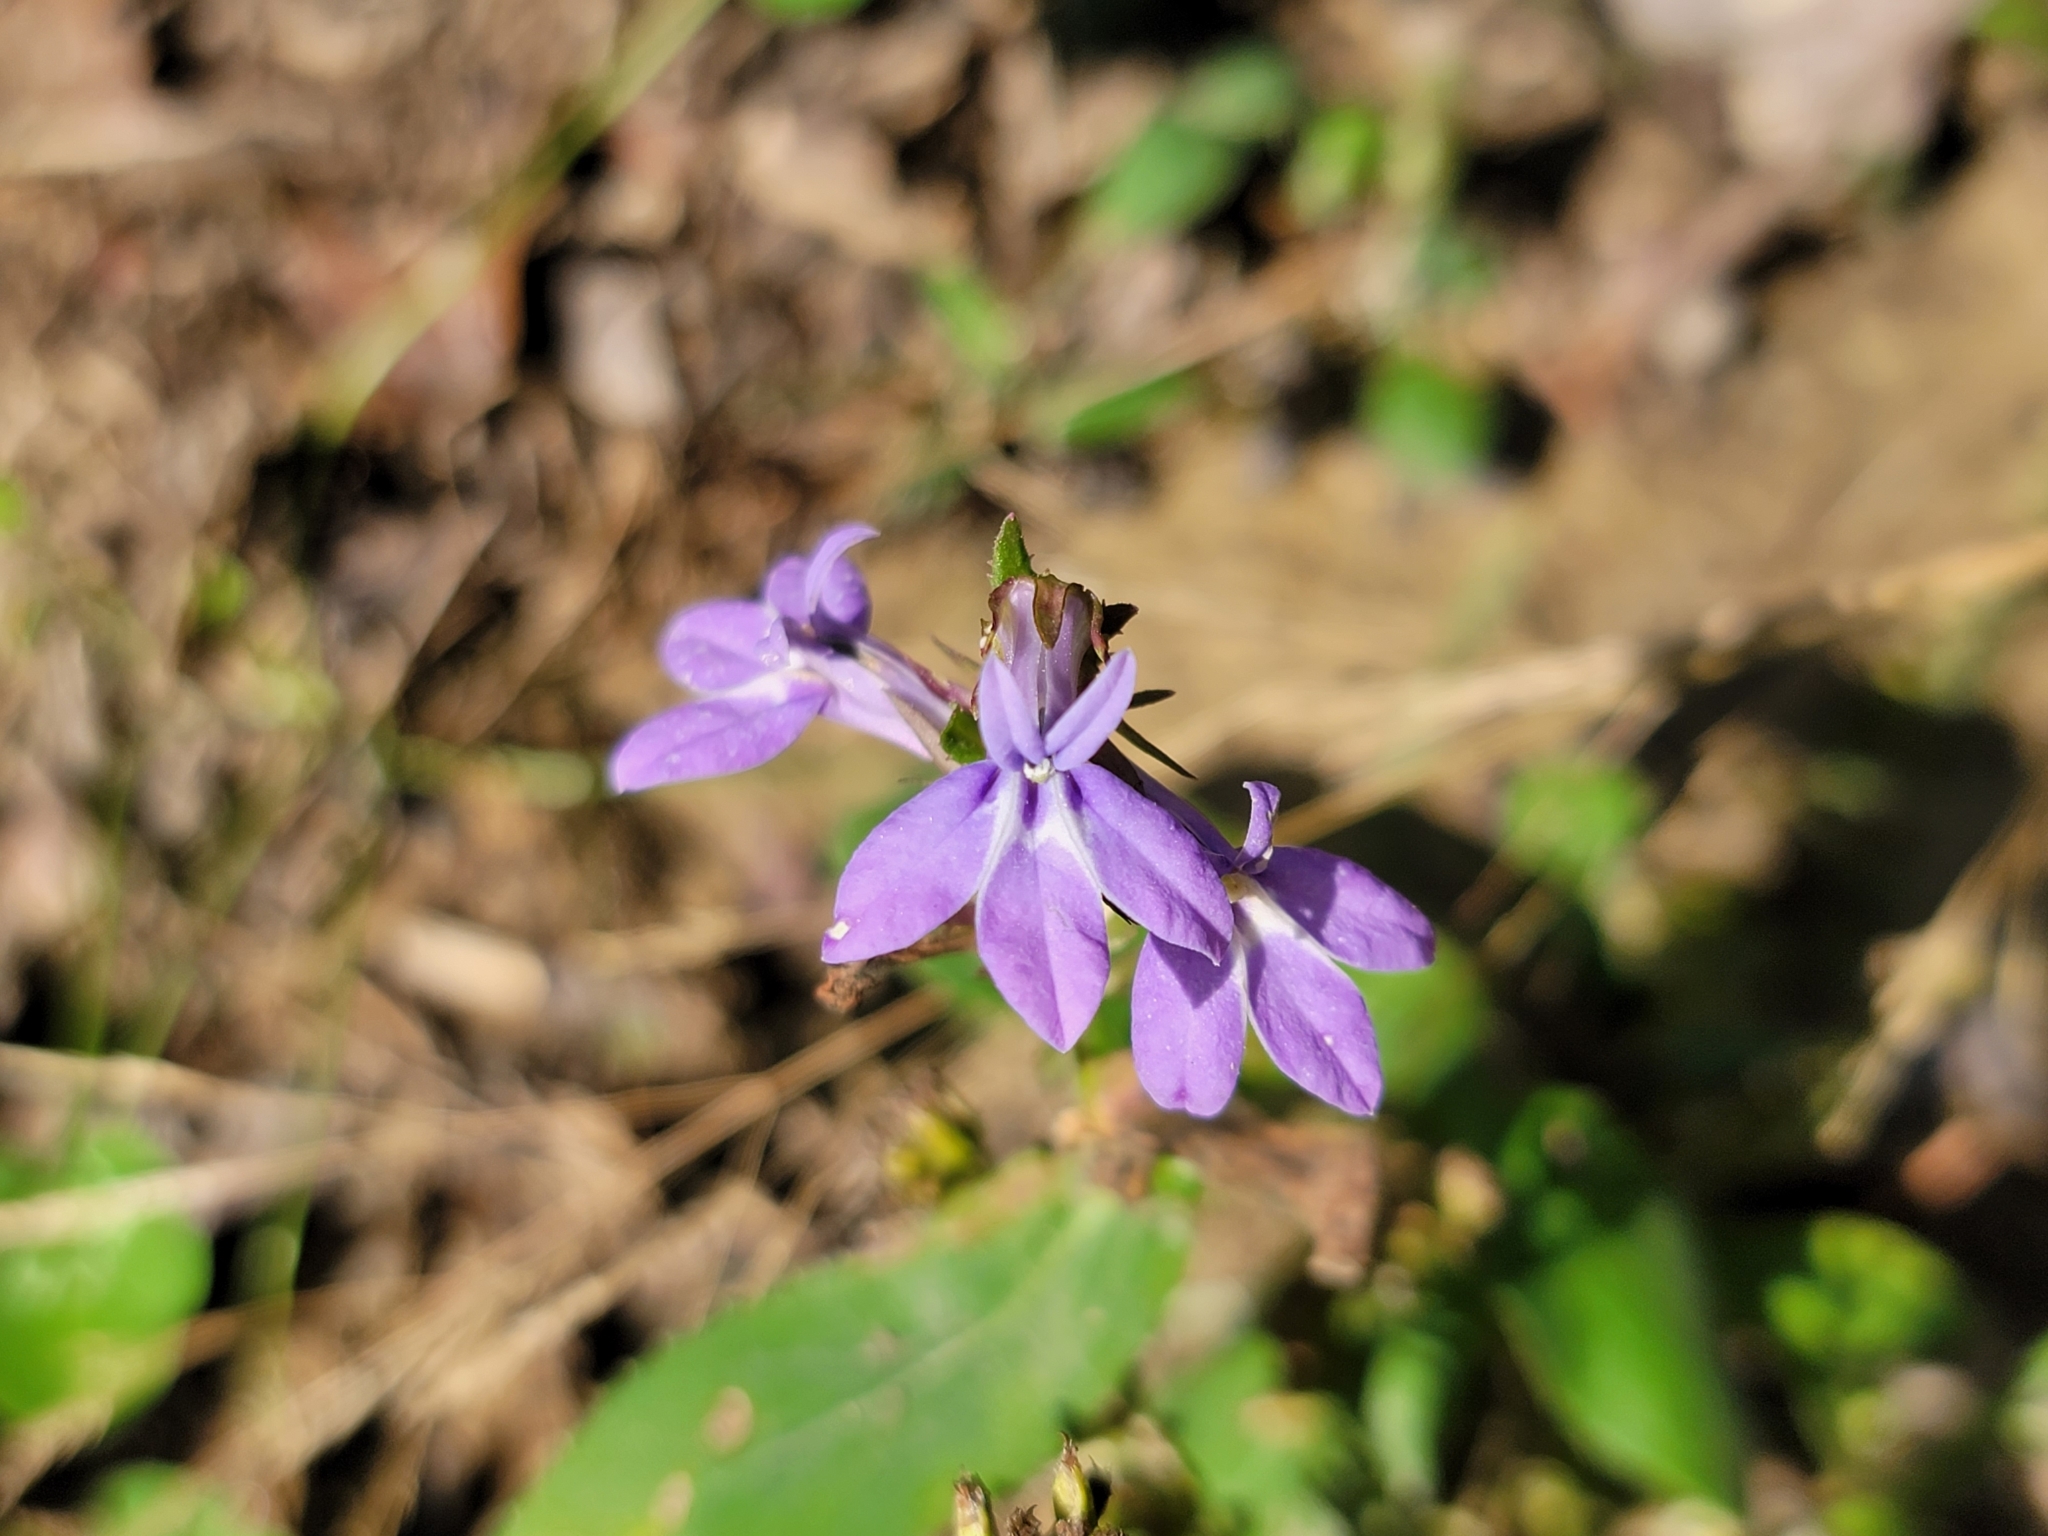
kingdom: Plantae
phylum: Tracheophyta
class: Magnoliopsida
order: Asterales
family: Campanulaceae
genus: Lobelia
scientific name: Lobelia puberula
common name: Purple dewdrop
